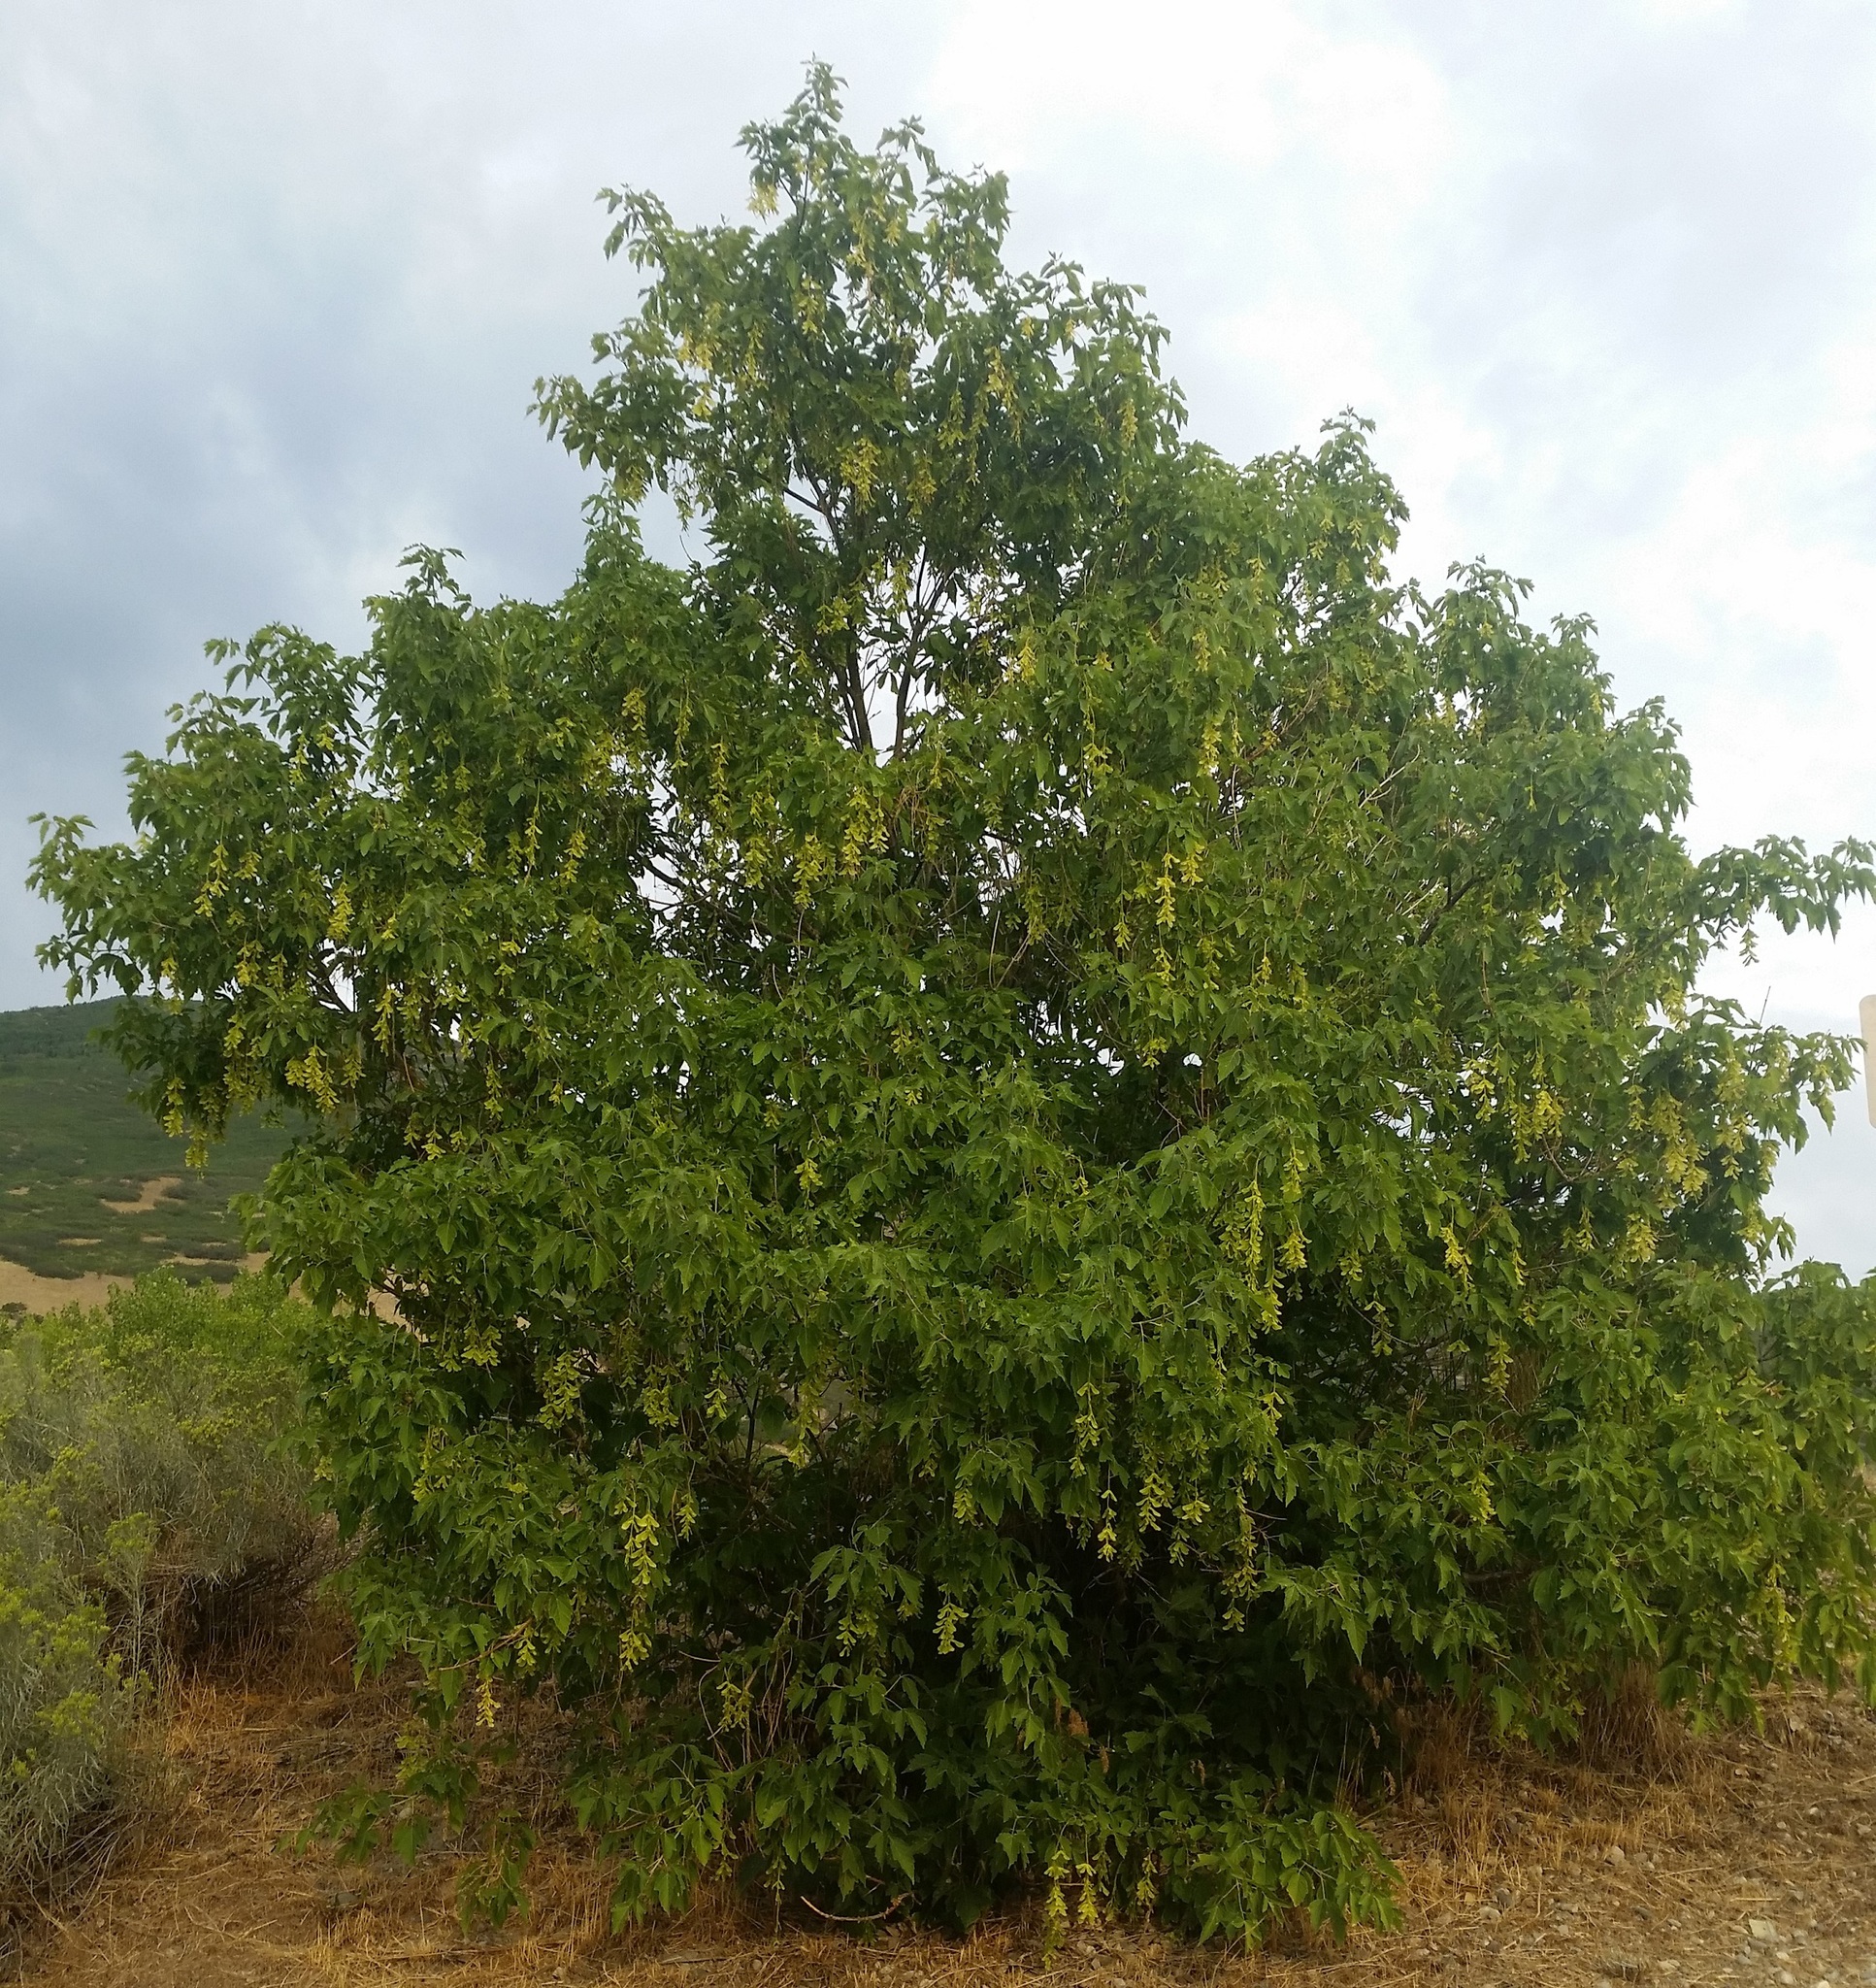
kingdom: Plantae
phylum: Tracheophyta
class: Magnoliopsida
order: Sapindales
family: Sapindaceae
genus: Acer
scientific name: Acer negundo
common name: Ashleaf maple
